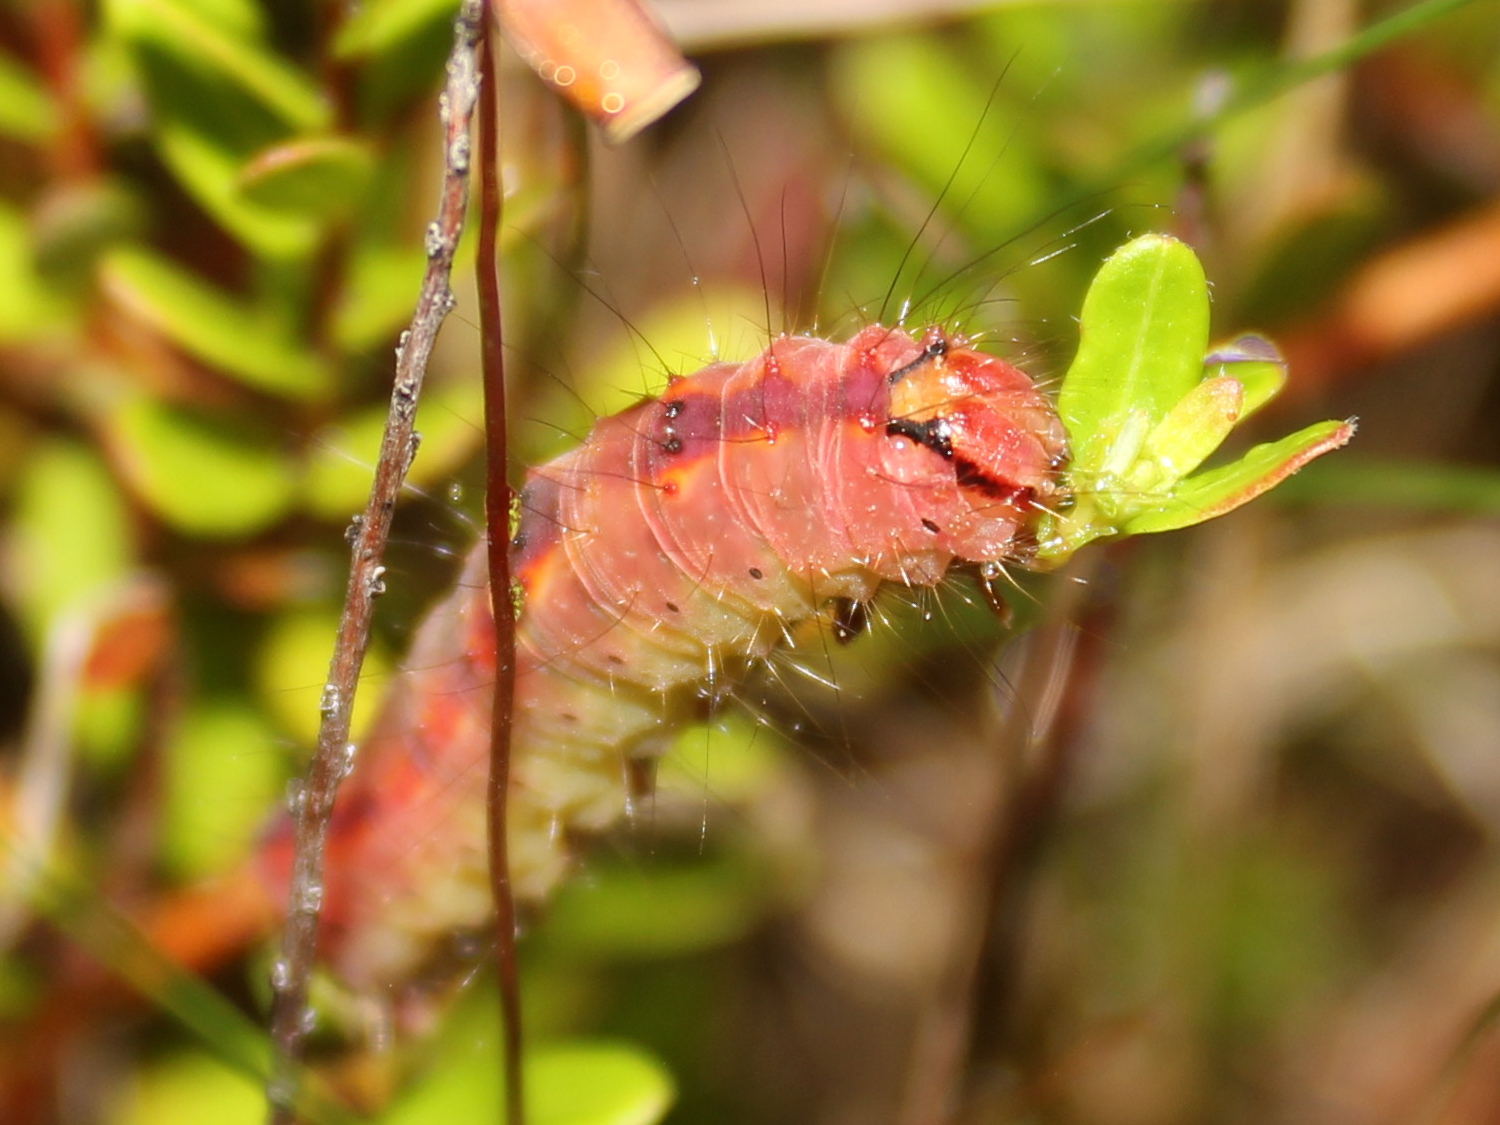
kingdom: Animalia
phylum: Arthropoda
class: Insecta
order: Lepidoptera
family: Noctuidae
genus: Acronicta
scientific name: Acronicta tritona
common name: Triton dagger
